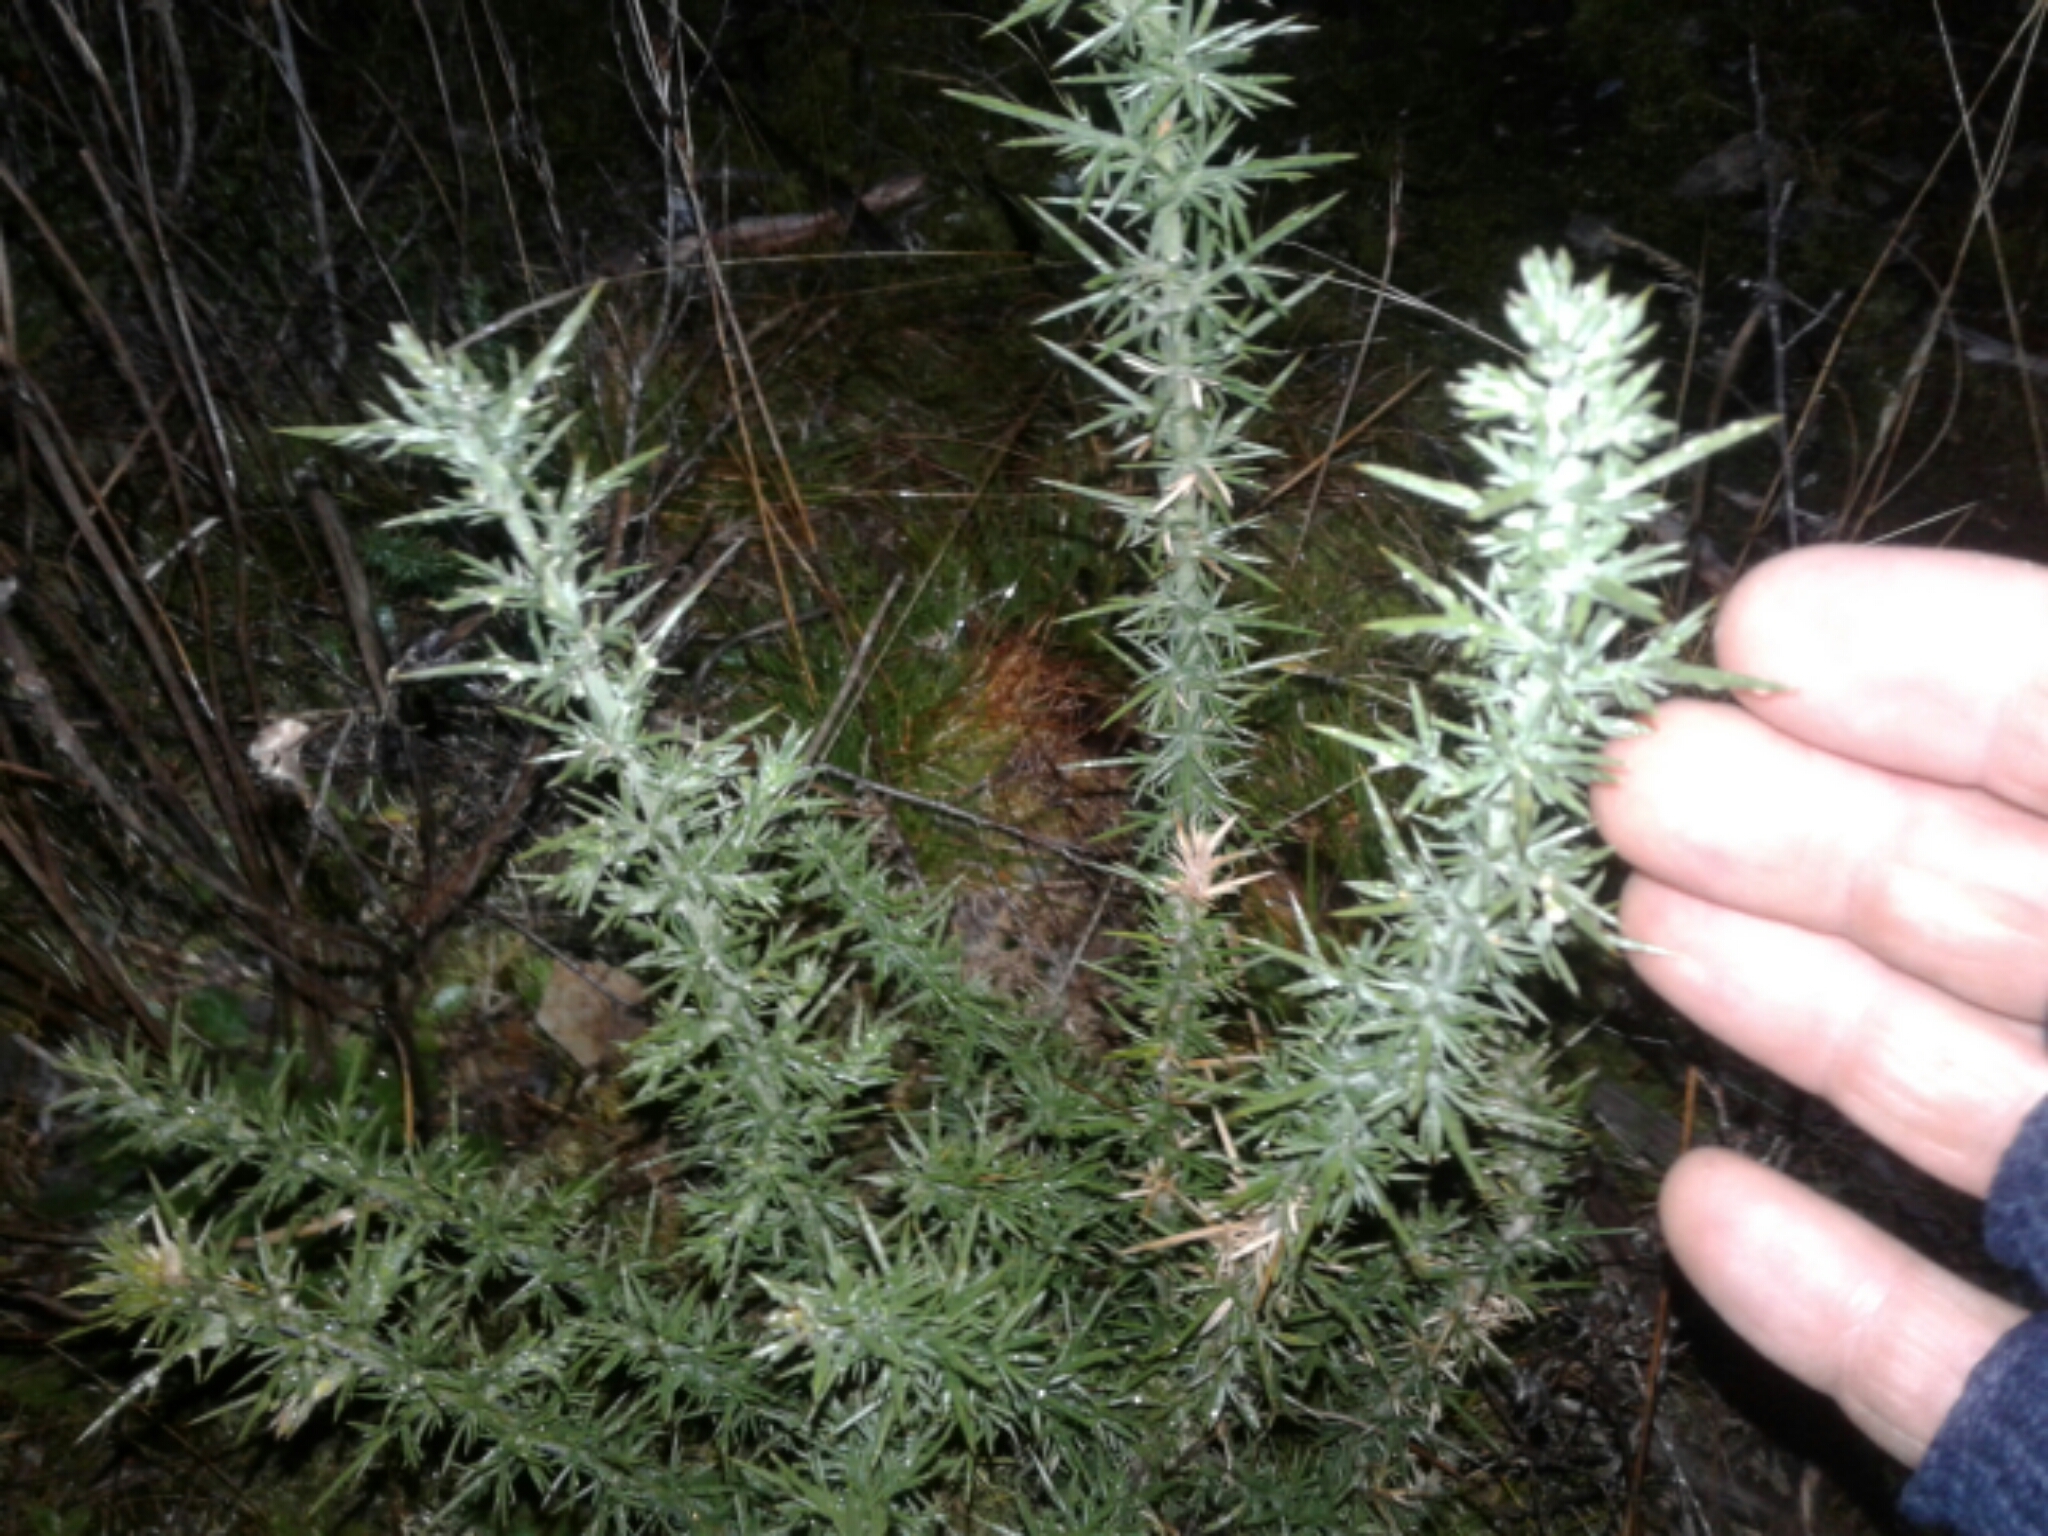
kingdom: Plantae
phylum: Tracheophyta
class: Magnoliopsida
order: Fabales
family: Fabaceae
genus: Ulex
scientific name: Ulex europaeus
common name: Common gorse
